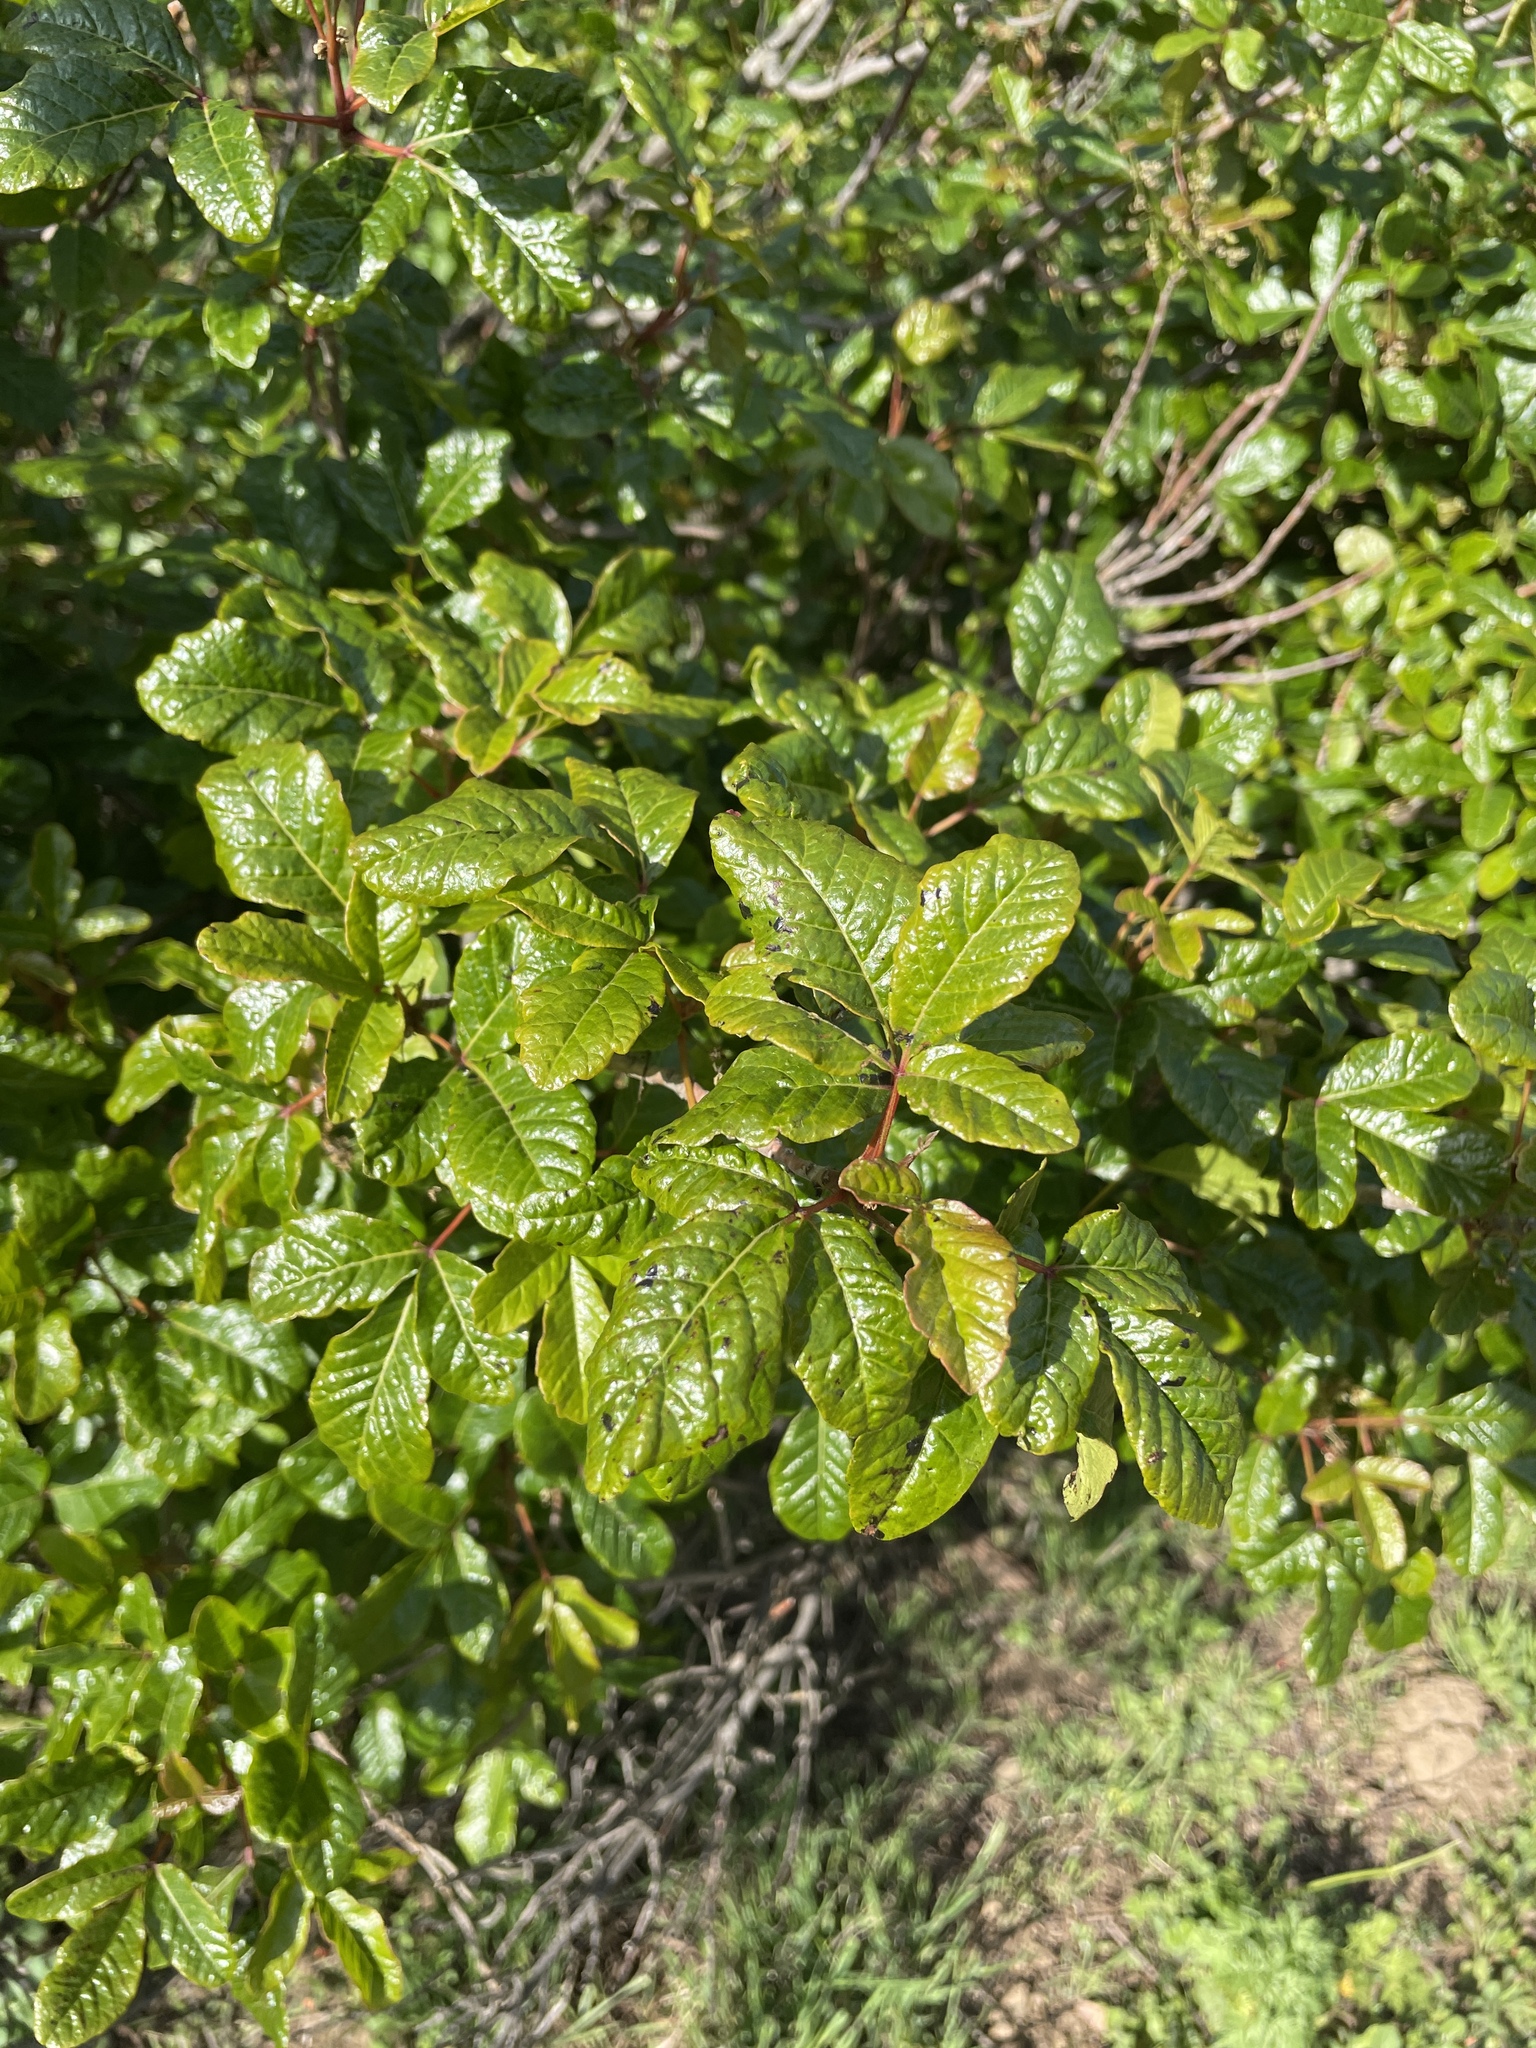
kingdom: Plantae
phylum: Tracheophyta
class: Magnoliopsida
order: Sapindales
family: Anacardiaceae
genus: Toxicodendron
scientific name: Toxicodendron diversilobum
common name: Pacific poison-oak
